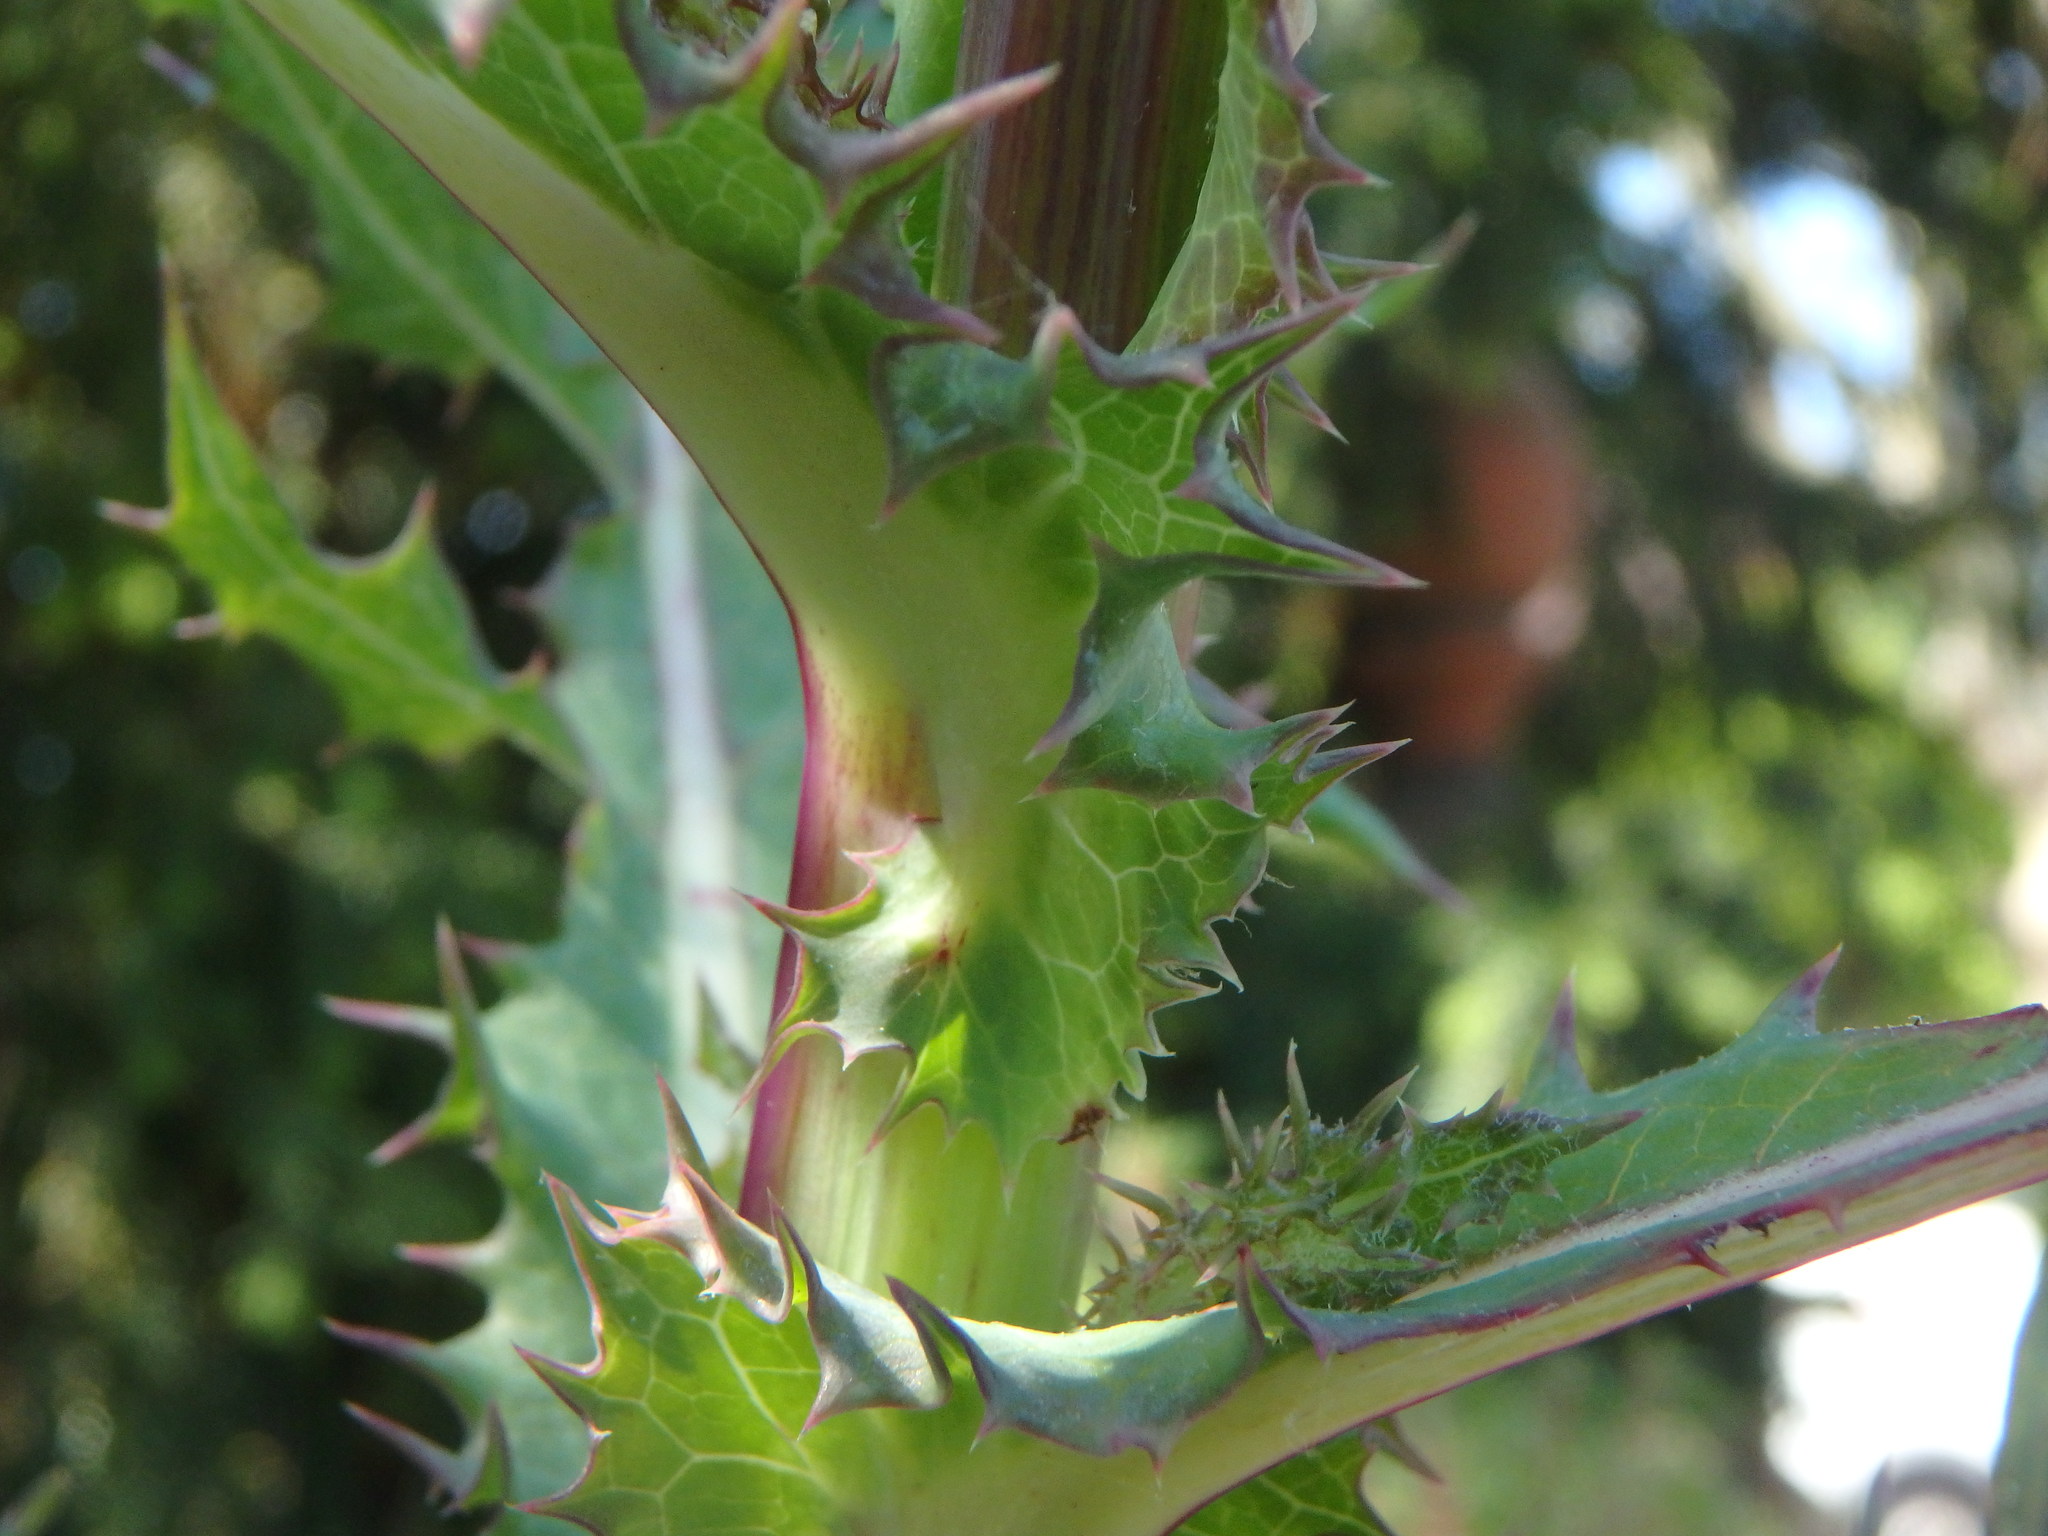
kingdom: Plantae
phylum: Tracheophyta
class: Magnoliopsida
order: Asterales
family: Asteraceae
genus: Sonchus
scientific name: Sonchus asper
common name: Prickly sow-thistle
